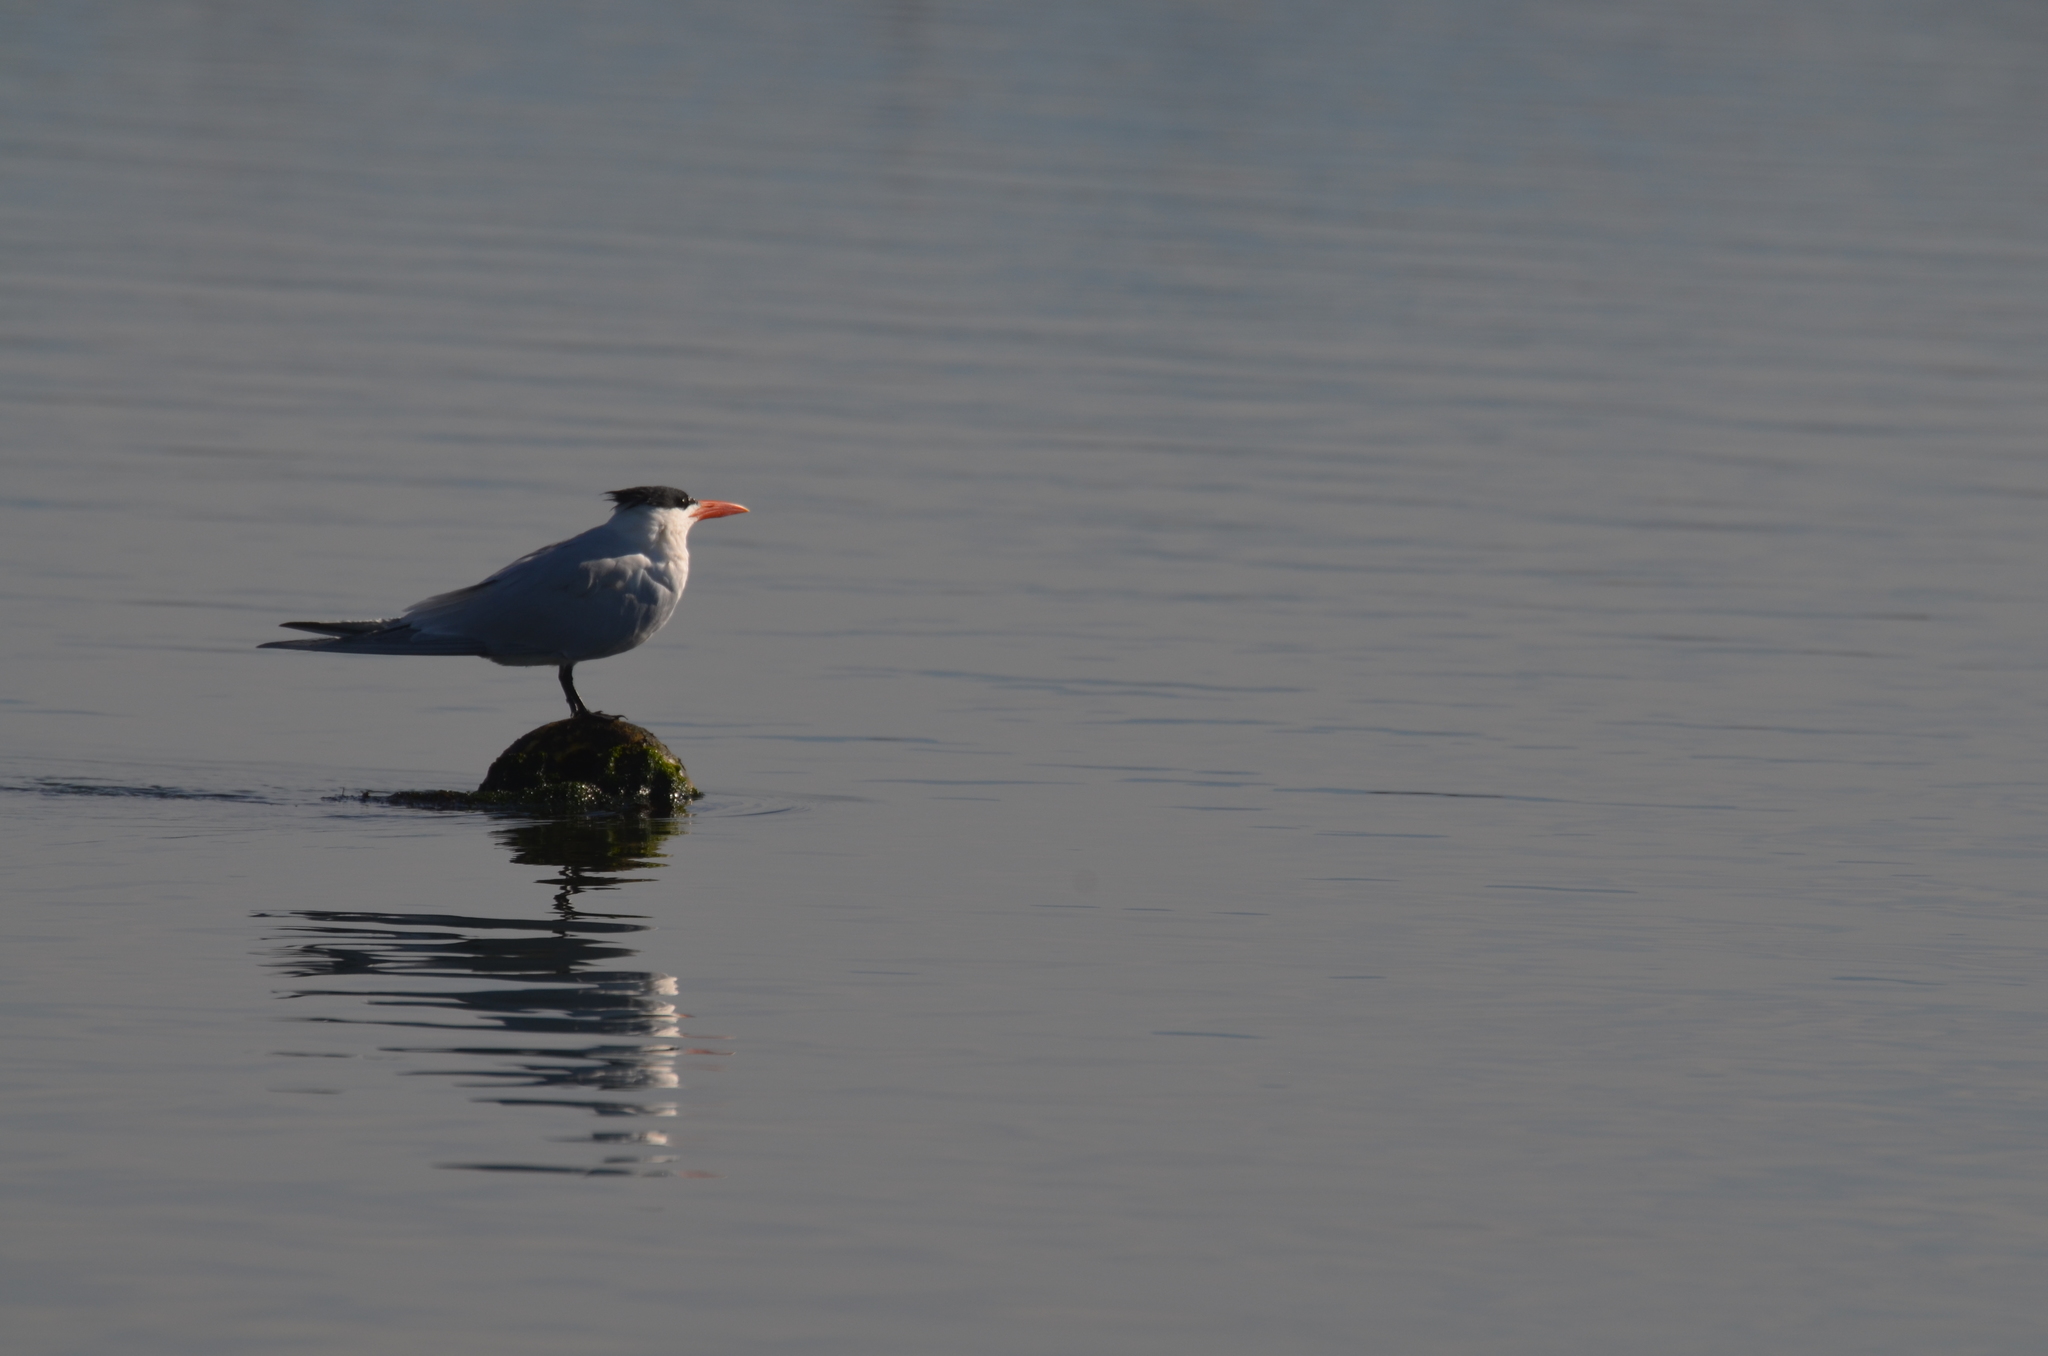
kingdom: Animalia
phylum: Chordata
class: Aves
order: Charadriiformes
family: Laridae
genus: Thalasseus
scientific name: Thalasseus maximus
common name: Royal tern
